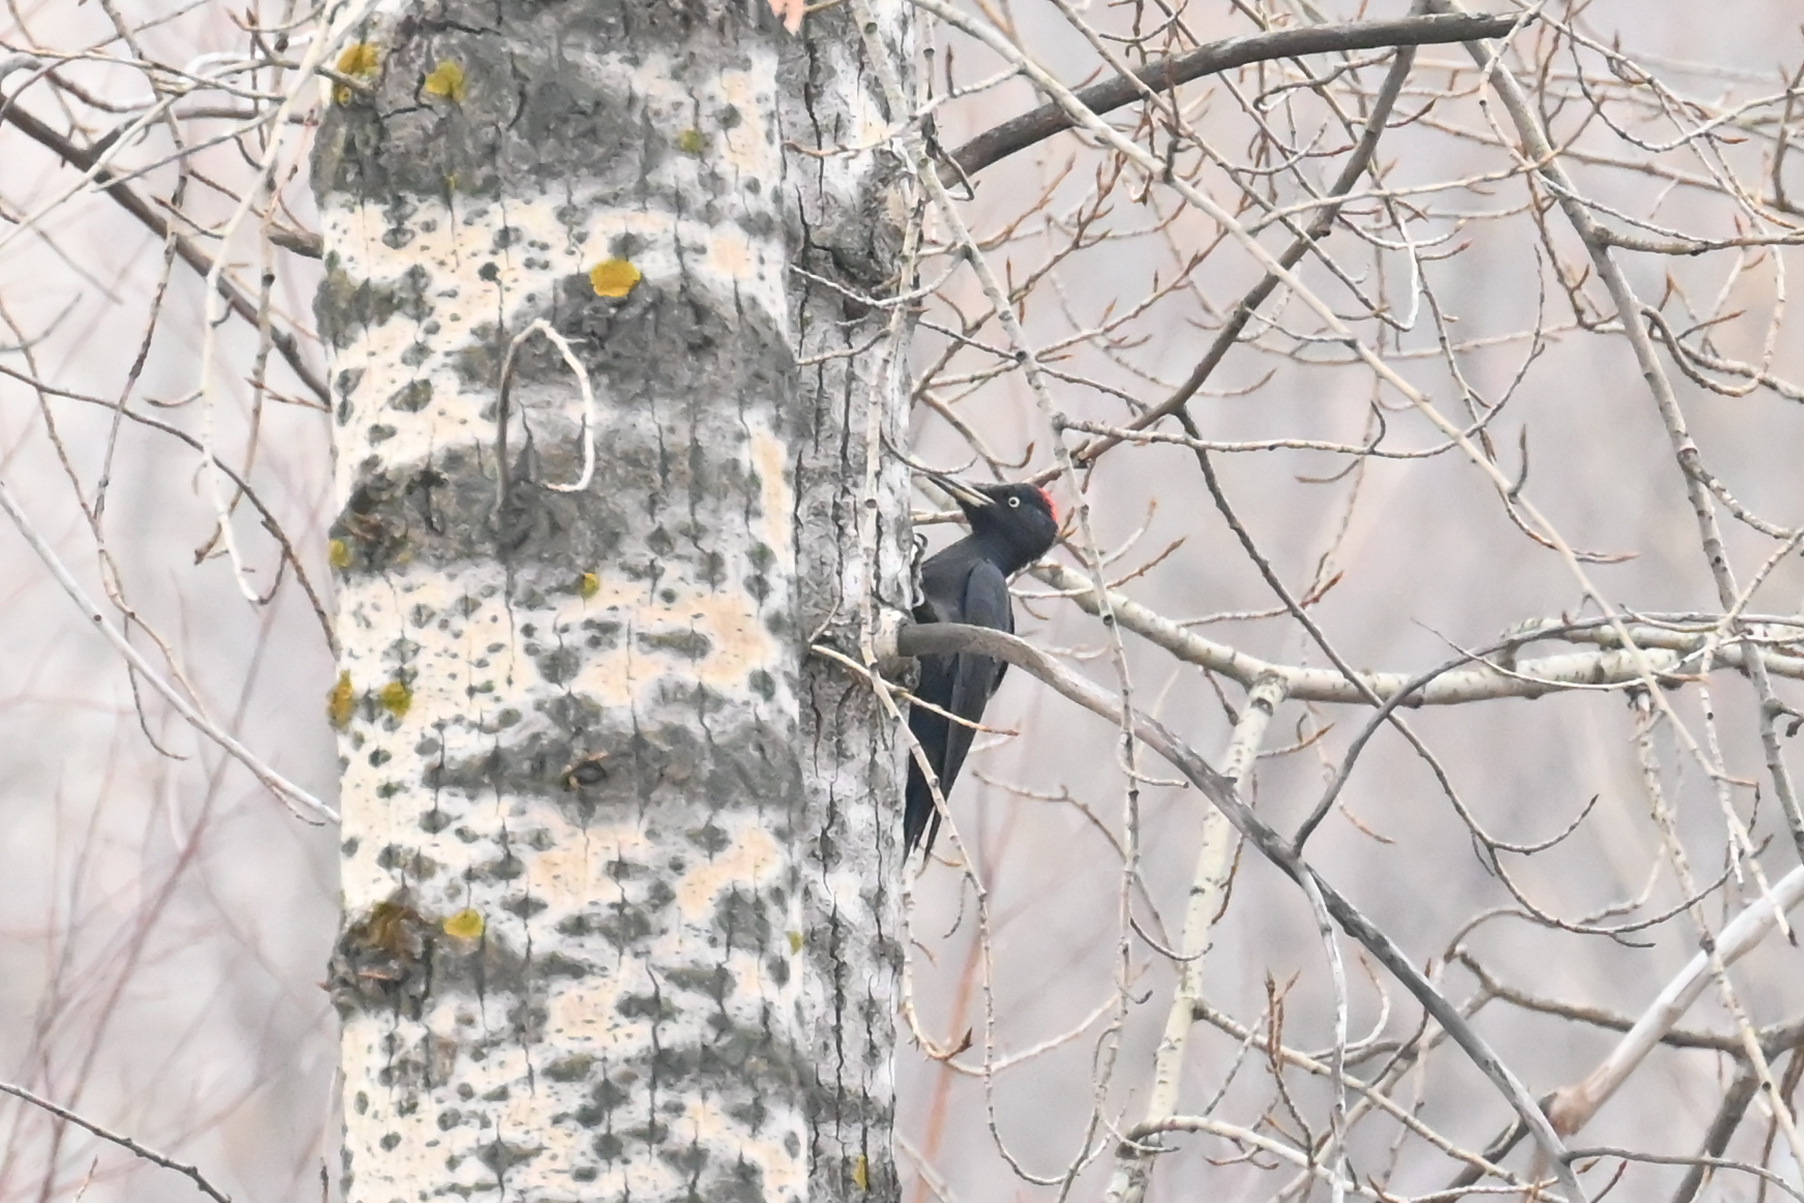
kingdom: Animalia
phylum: Chordata
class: Aves
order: Piciformes
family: Picidae
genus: Dryocopus
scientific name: Dryocopus martius
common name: Black woodpecker
